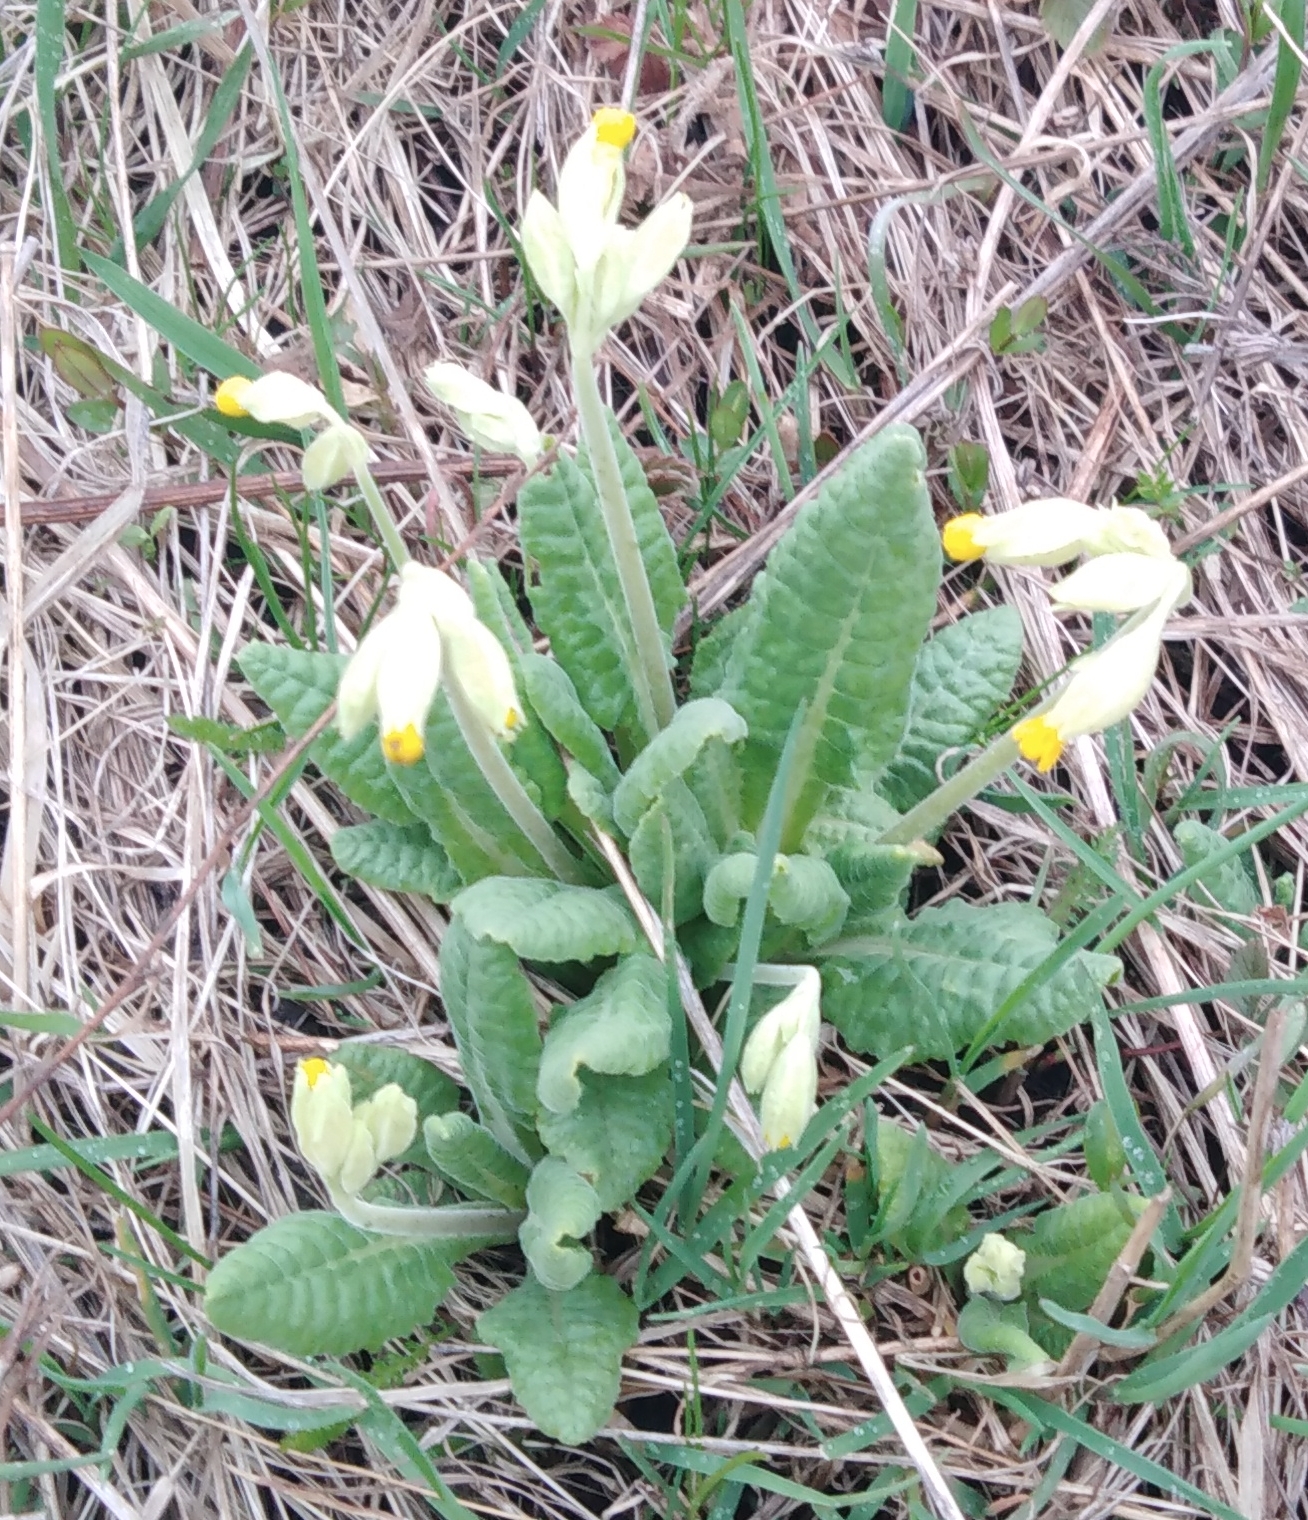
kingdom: Plantae
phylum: Tracheophyta
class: Magnoliopsida
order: Ericales
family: Primulaceae
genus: Primula
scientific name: Primula veris
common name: Cowslip
